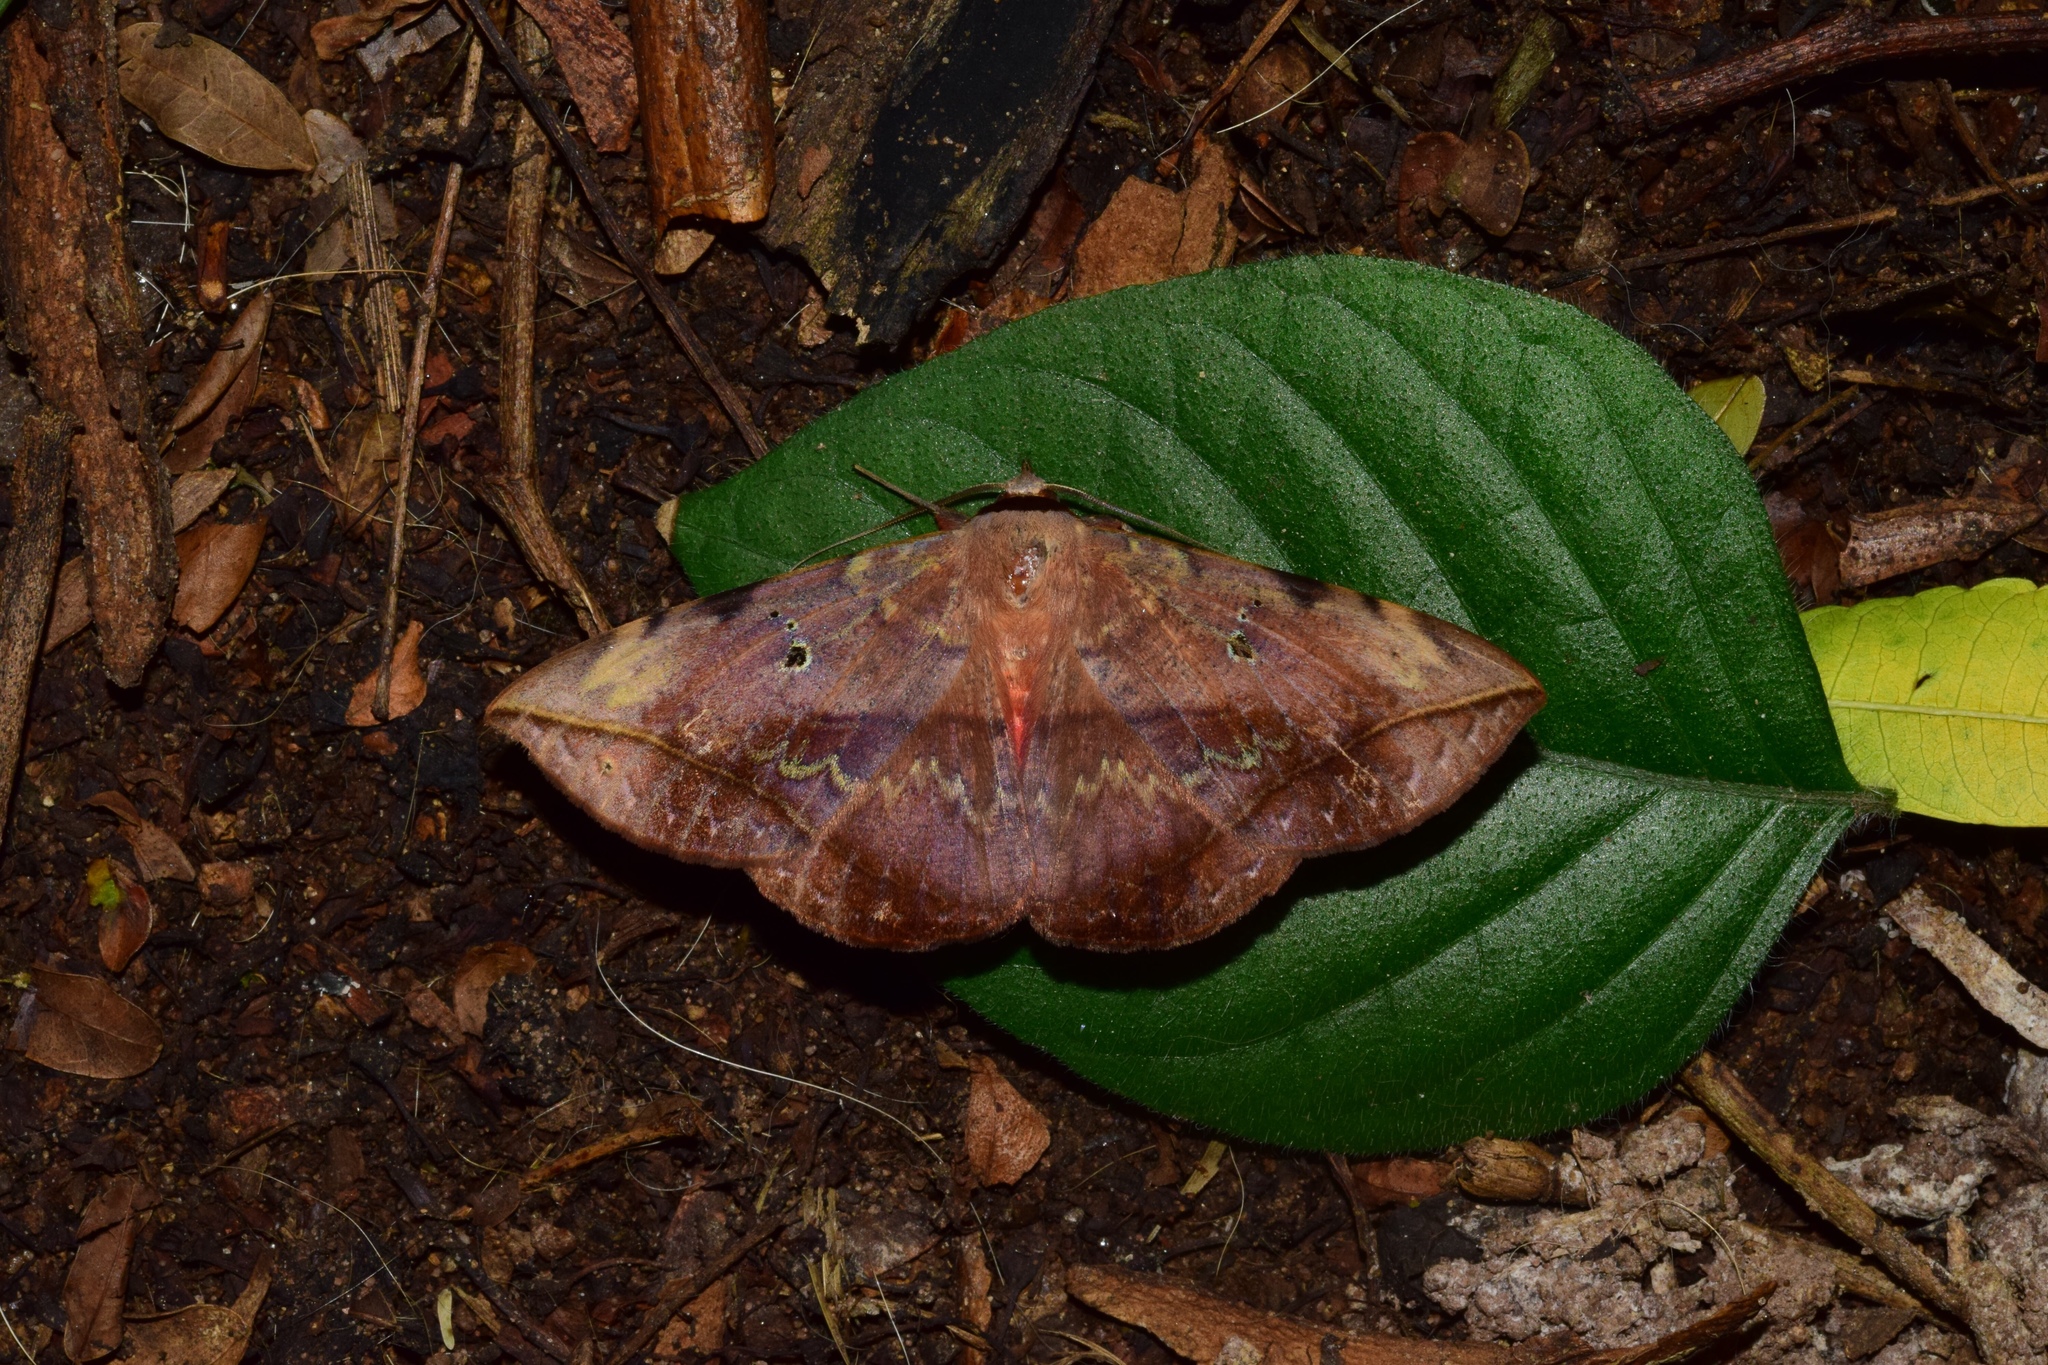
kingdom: Animalia
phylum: Arthropoda
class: Insecta
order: Lepidoptera
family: Erebidae
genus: Hypopyra
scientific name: Hypopyra capensis
